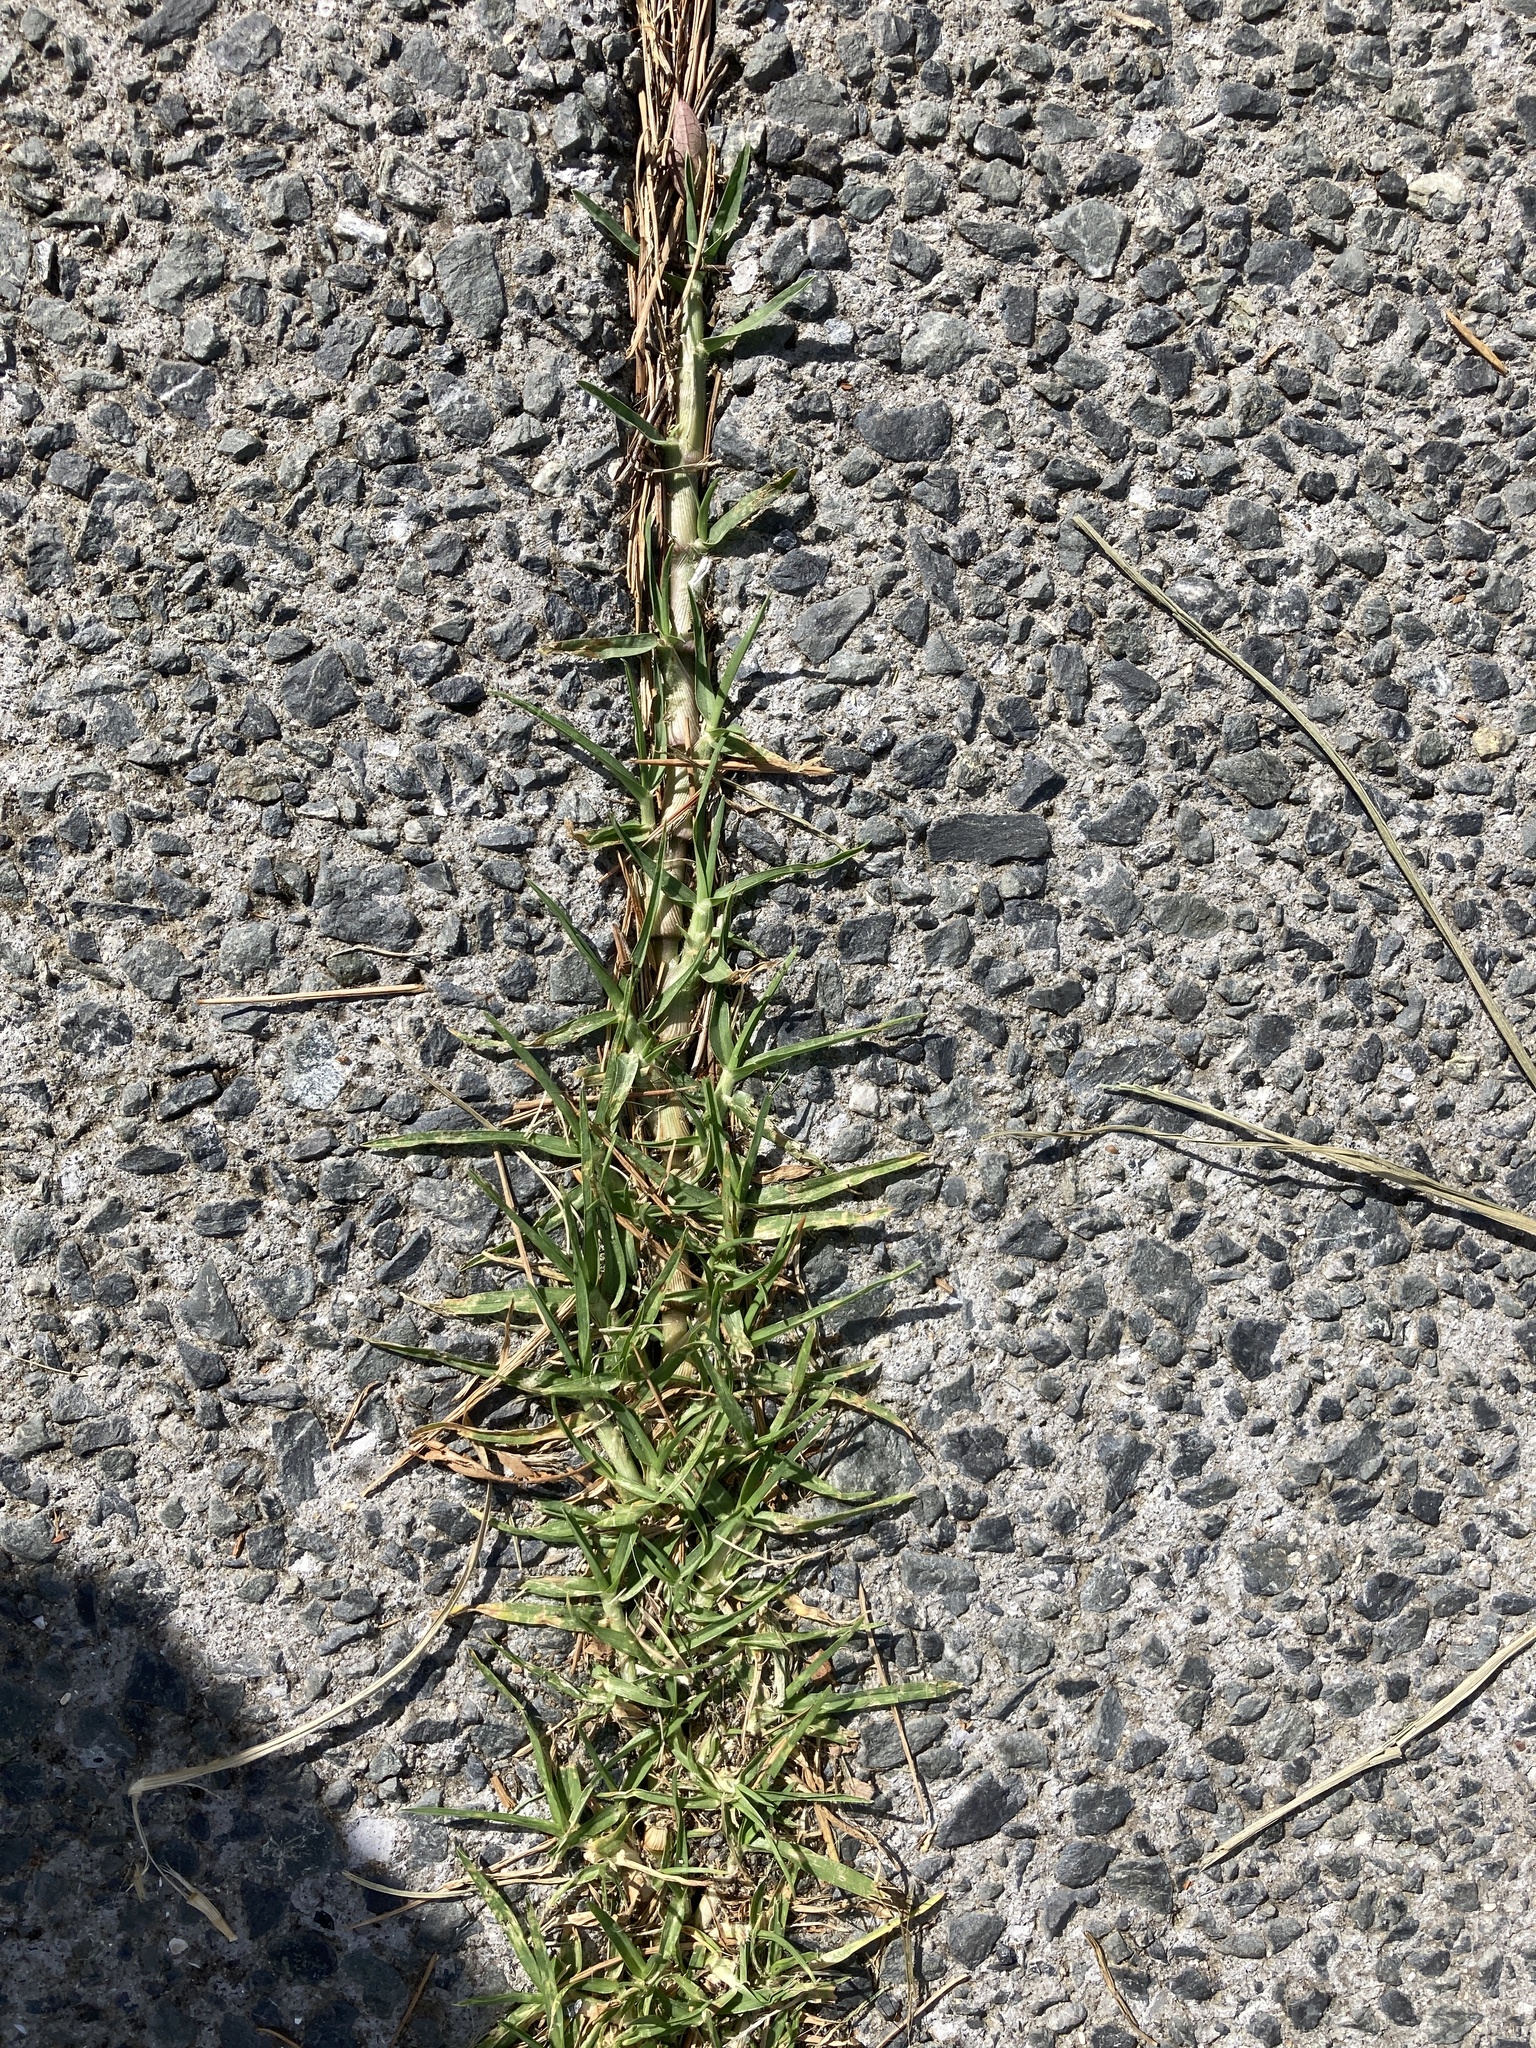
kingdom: Plantae
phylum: Tracheophyta
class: Liliopsida
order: Poales
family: Poaceae
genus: Cenchrus
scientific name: Cenchrus clandestinus
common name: Kikuyugrass
